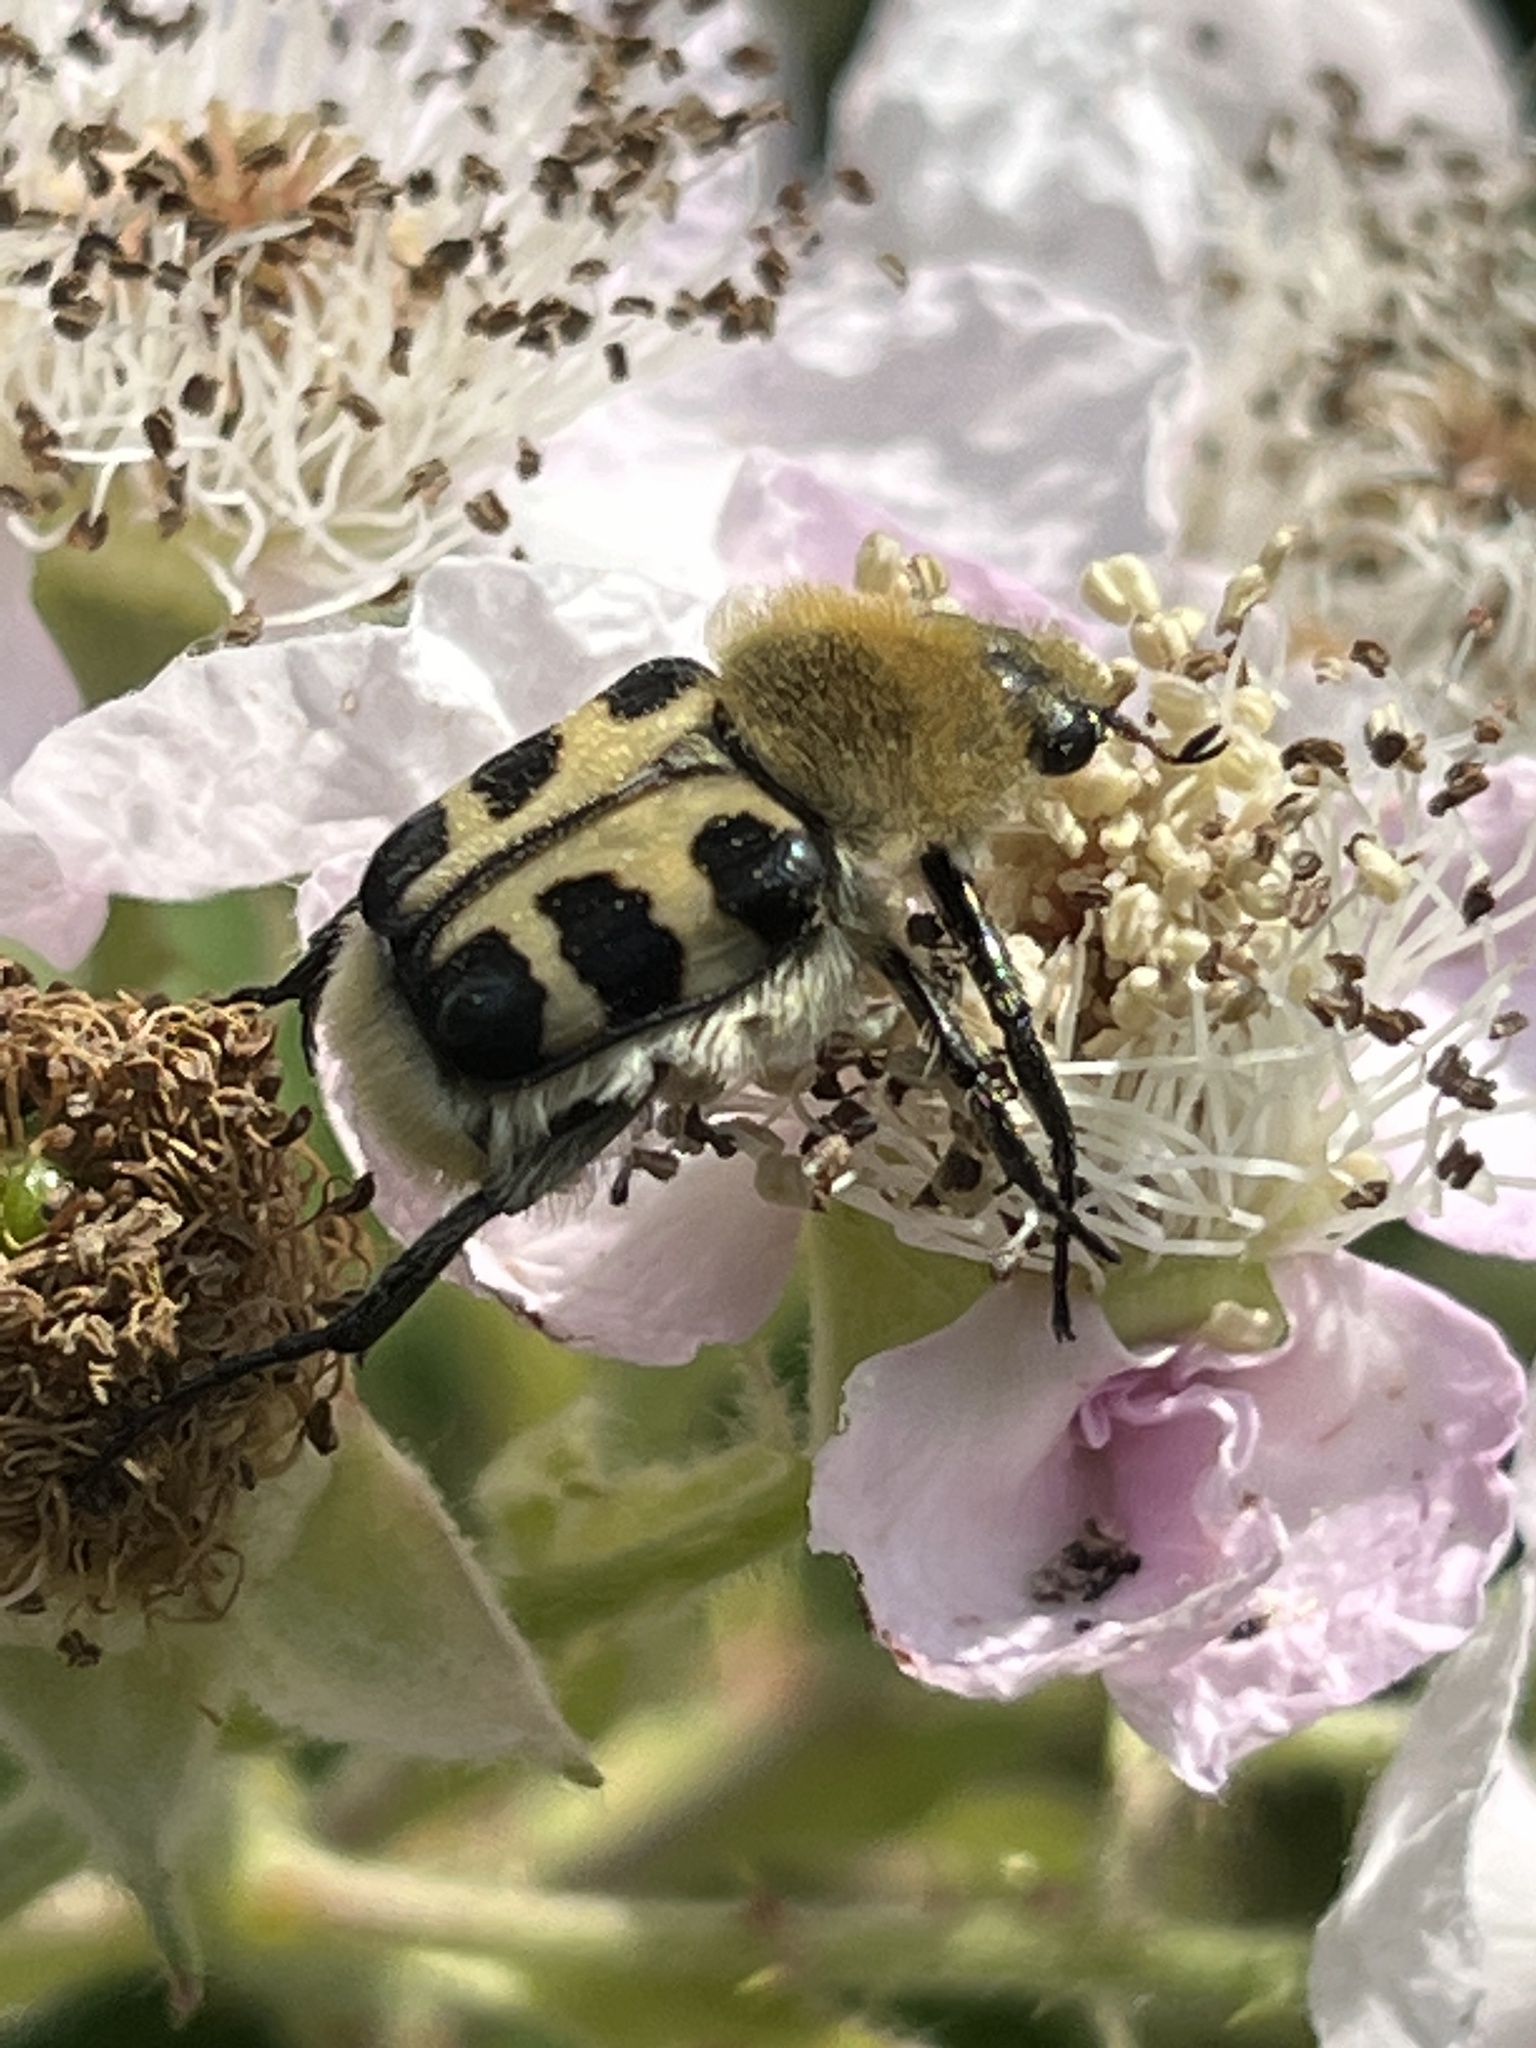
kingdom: Animalia
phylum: Arthropoda
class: Insecta
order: Coleoptera
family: Scarabaeidae
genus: Trichius
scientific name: Trichius gallicus
